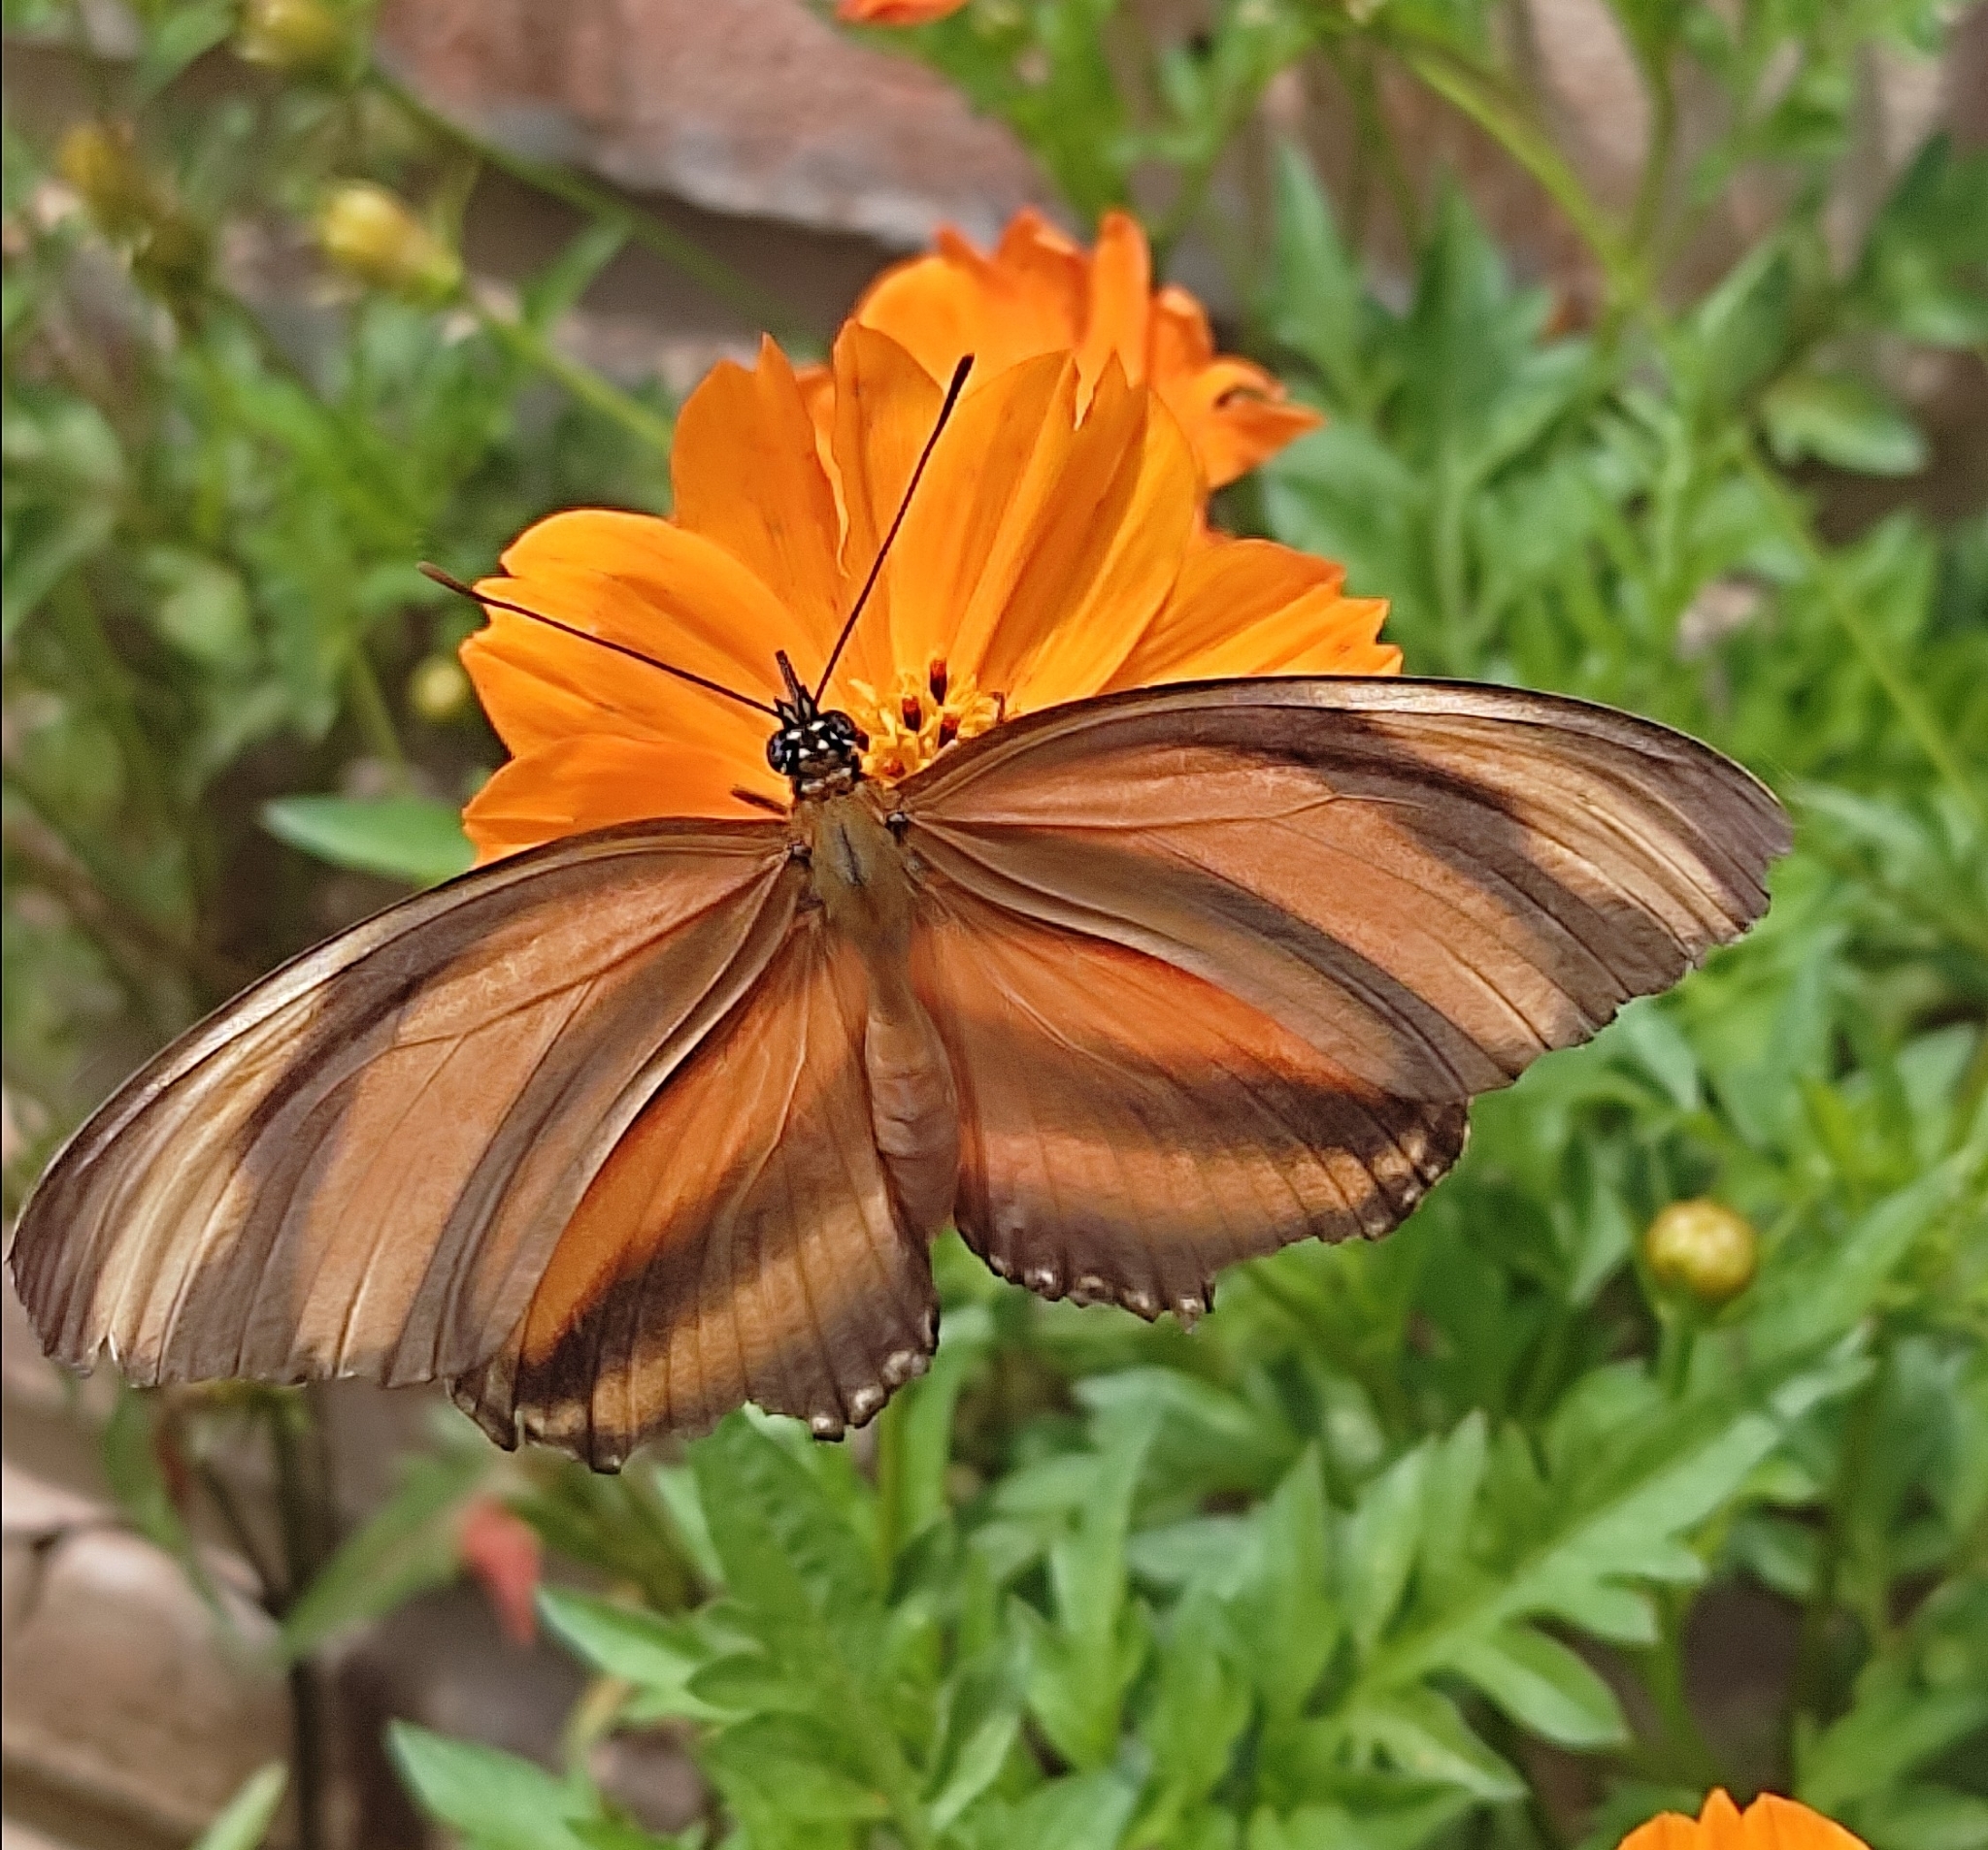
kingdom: Animalia
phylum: Arthropoda
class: Insecta
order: Lepidoptera
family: Nymphalidae
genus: Dryadula
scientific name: Dryadula phaetusa
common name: Banded orange heliconian
